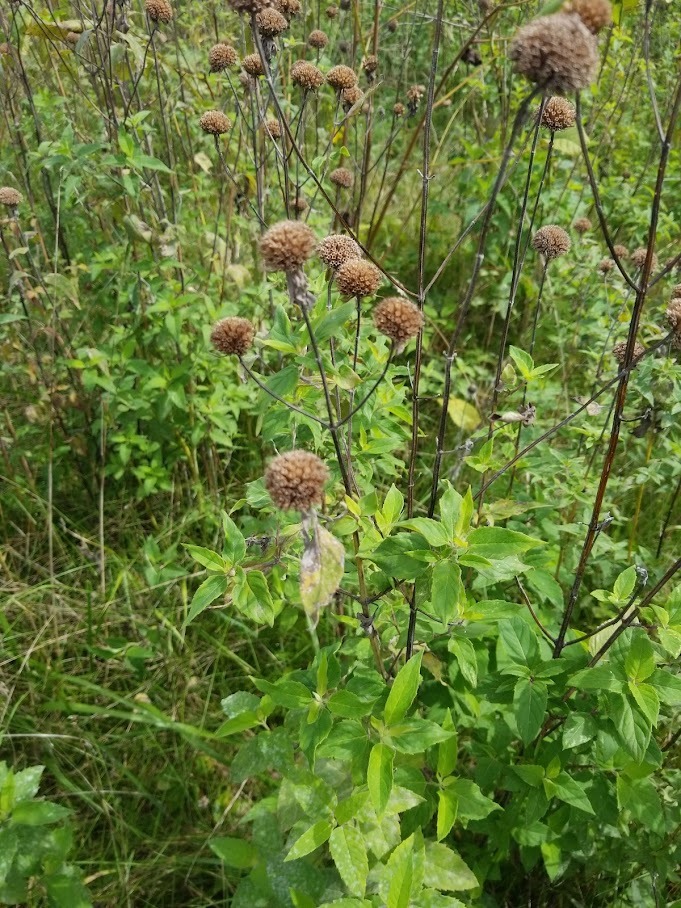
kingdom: Plantae
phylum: Tracheophyta
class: Magnoliopsida
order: Lamiales
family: Lamiaceae
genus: Monarda
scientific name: Monarda fistulosa
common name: Purple beebalm
